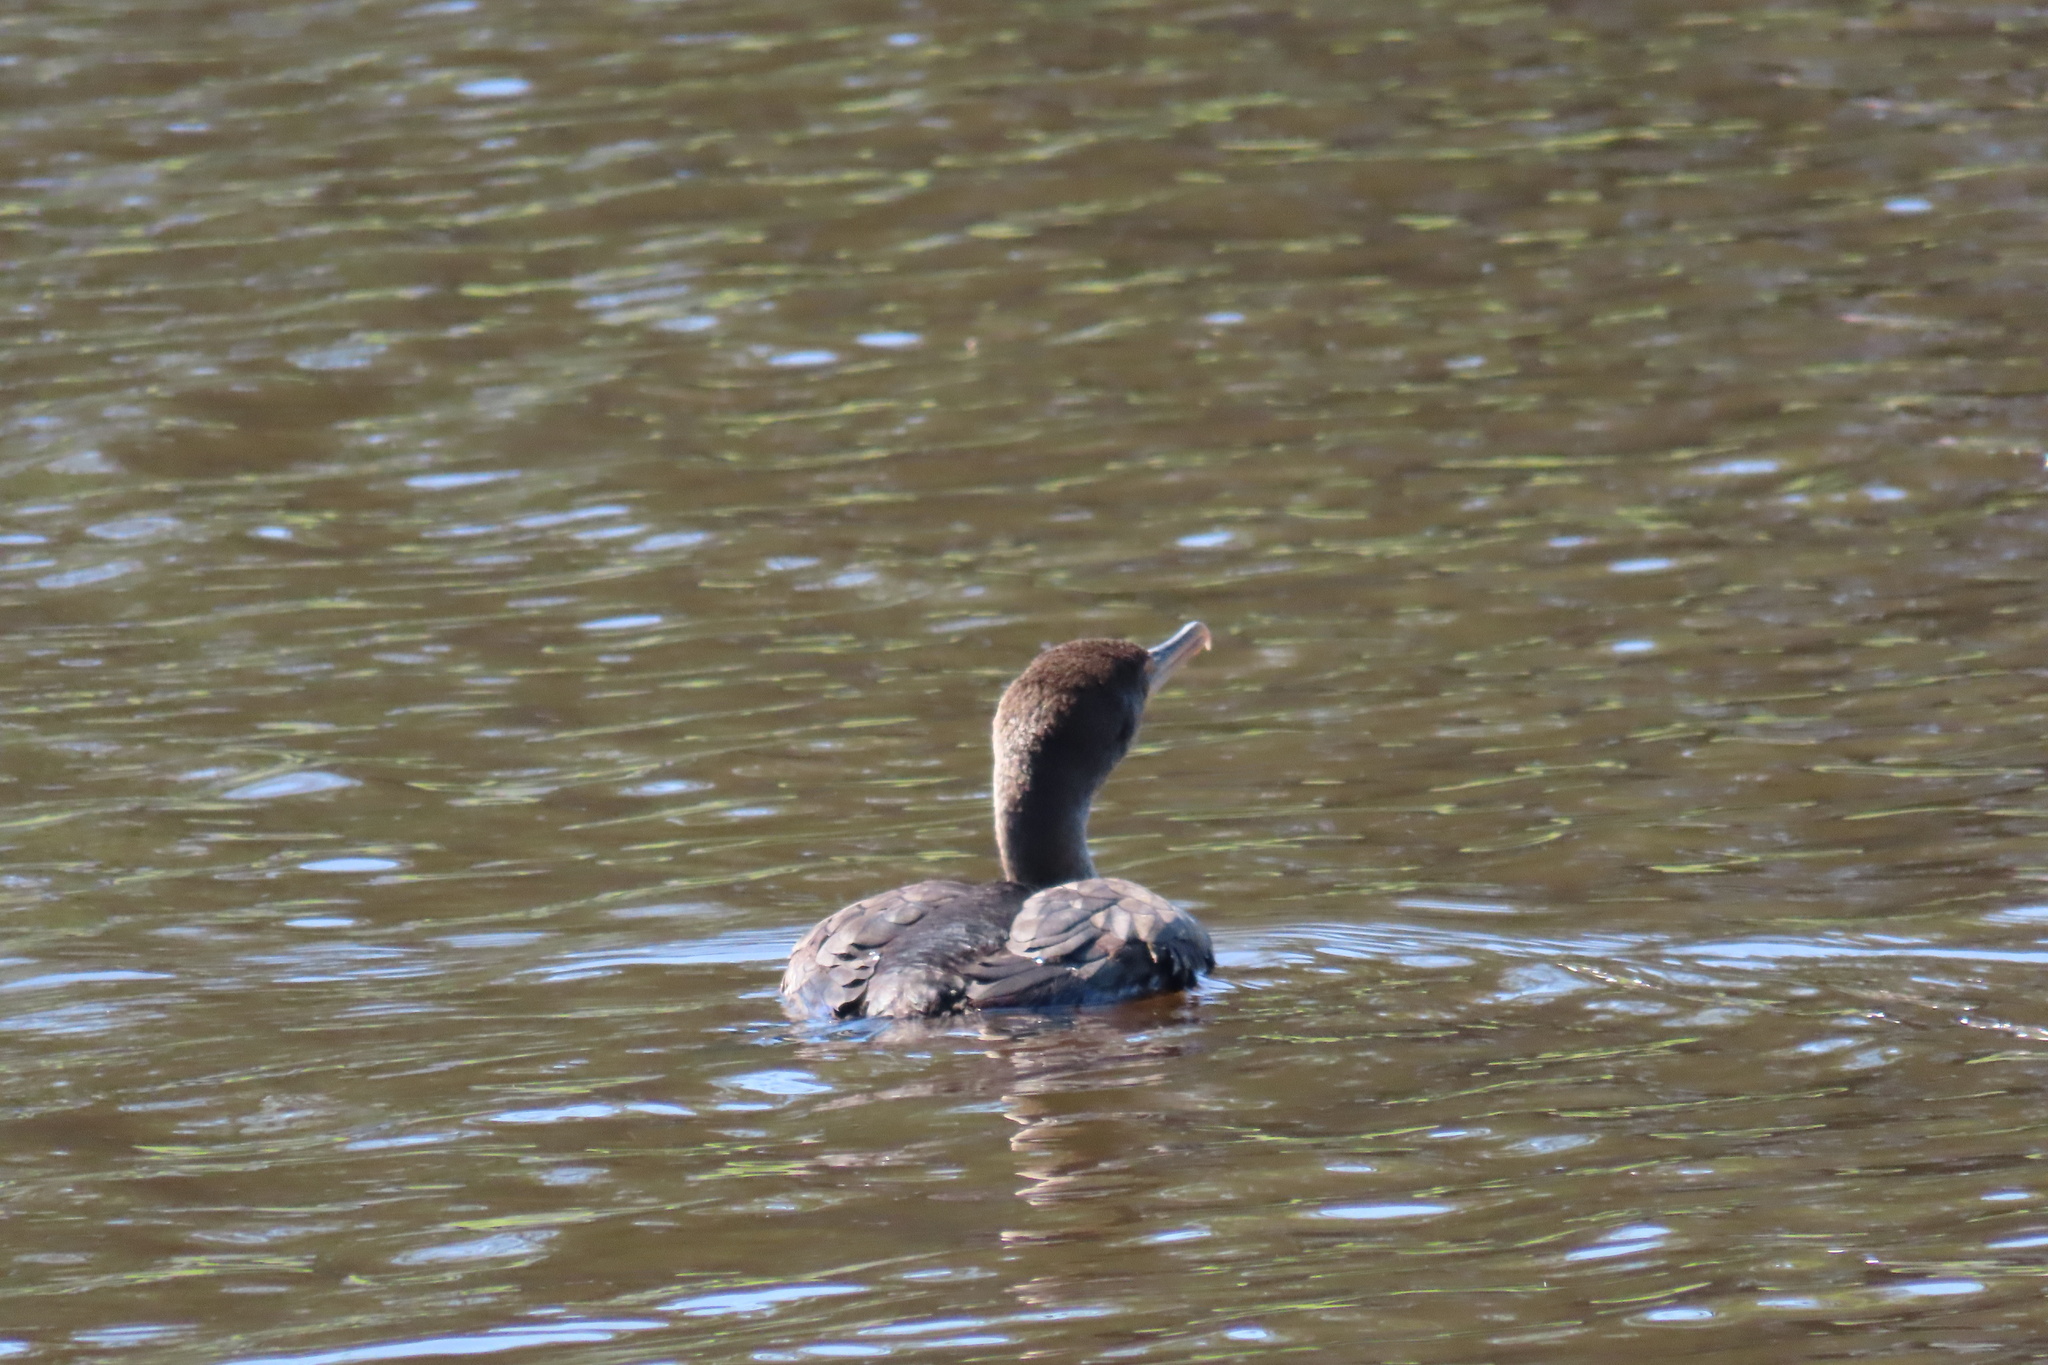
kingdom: Animalia
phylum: Chordata
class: Aves
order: Suliformes
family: Phalacrocoracidae
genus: Phalacrocorax
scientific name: Phalacrocorax auritus
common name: Double-crested cormorant
